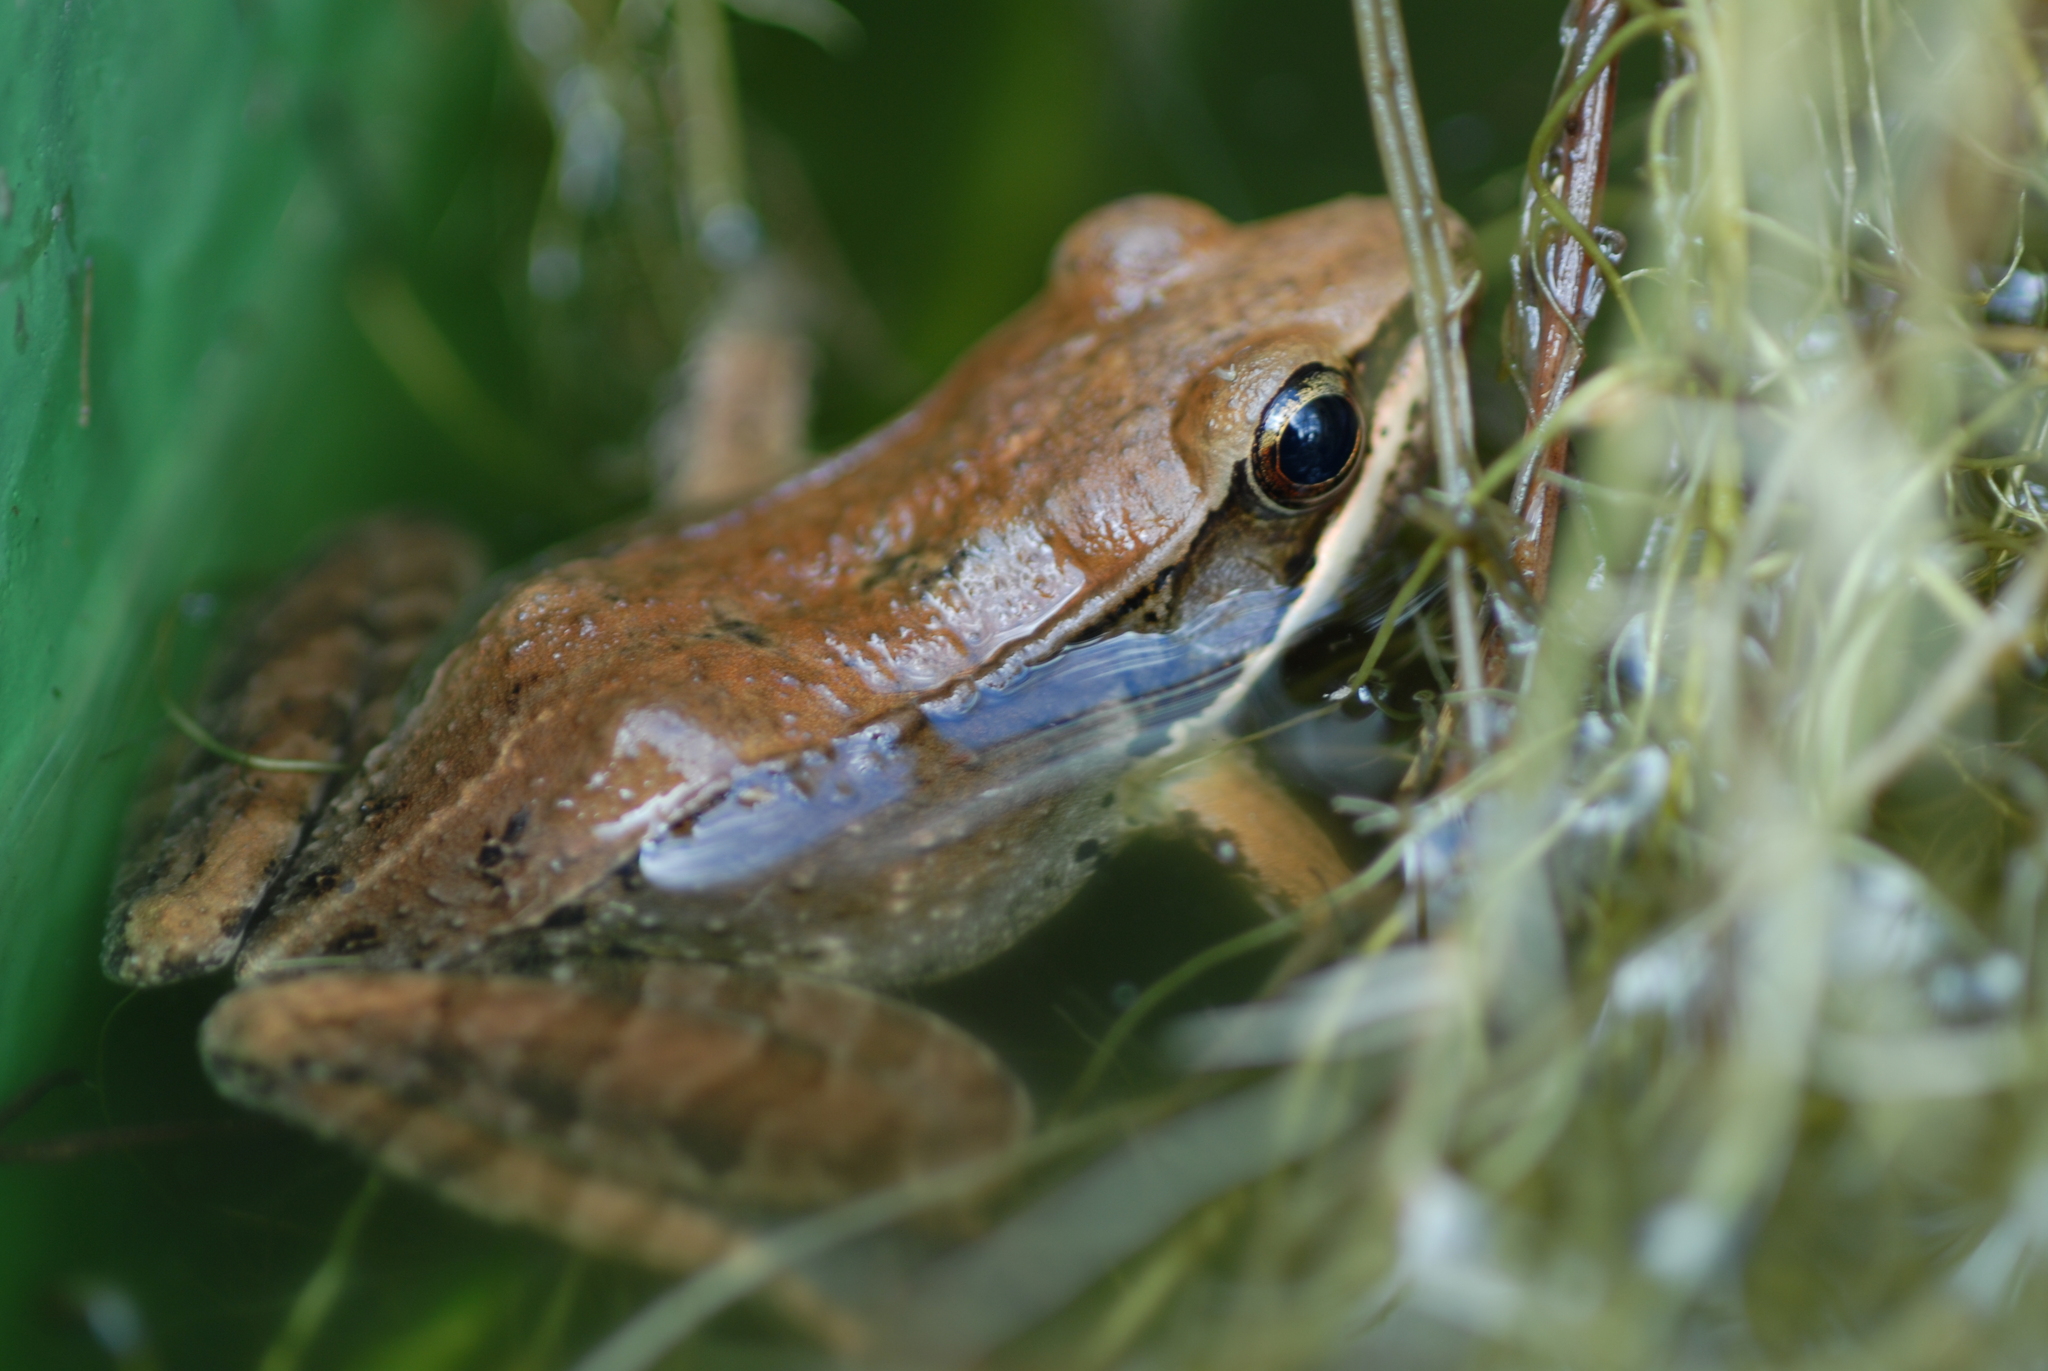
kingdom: Animalia
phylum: Chordata
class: Amphibia
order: Anura
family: Ranidae
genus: Nidirana
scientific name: Nidirana adenopleura
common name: Olive frog
